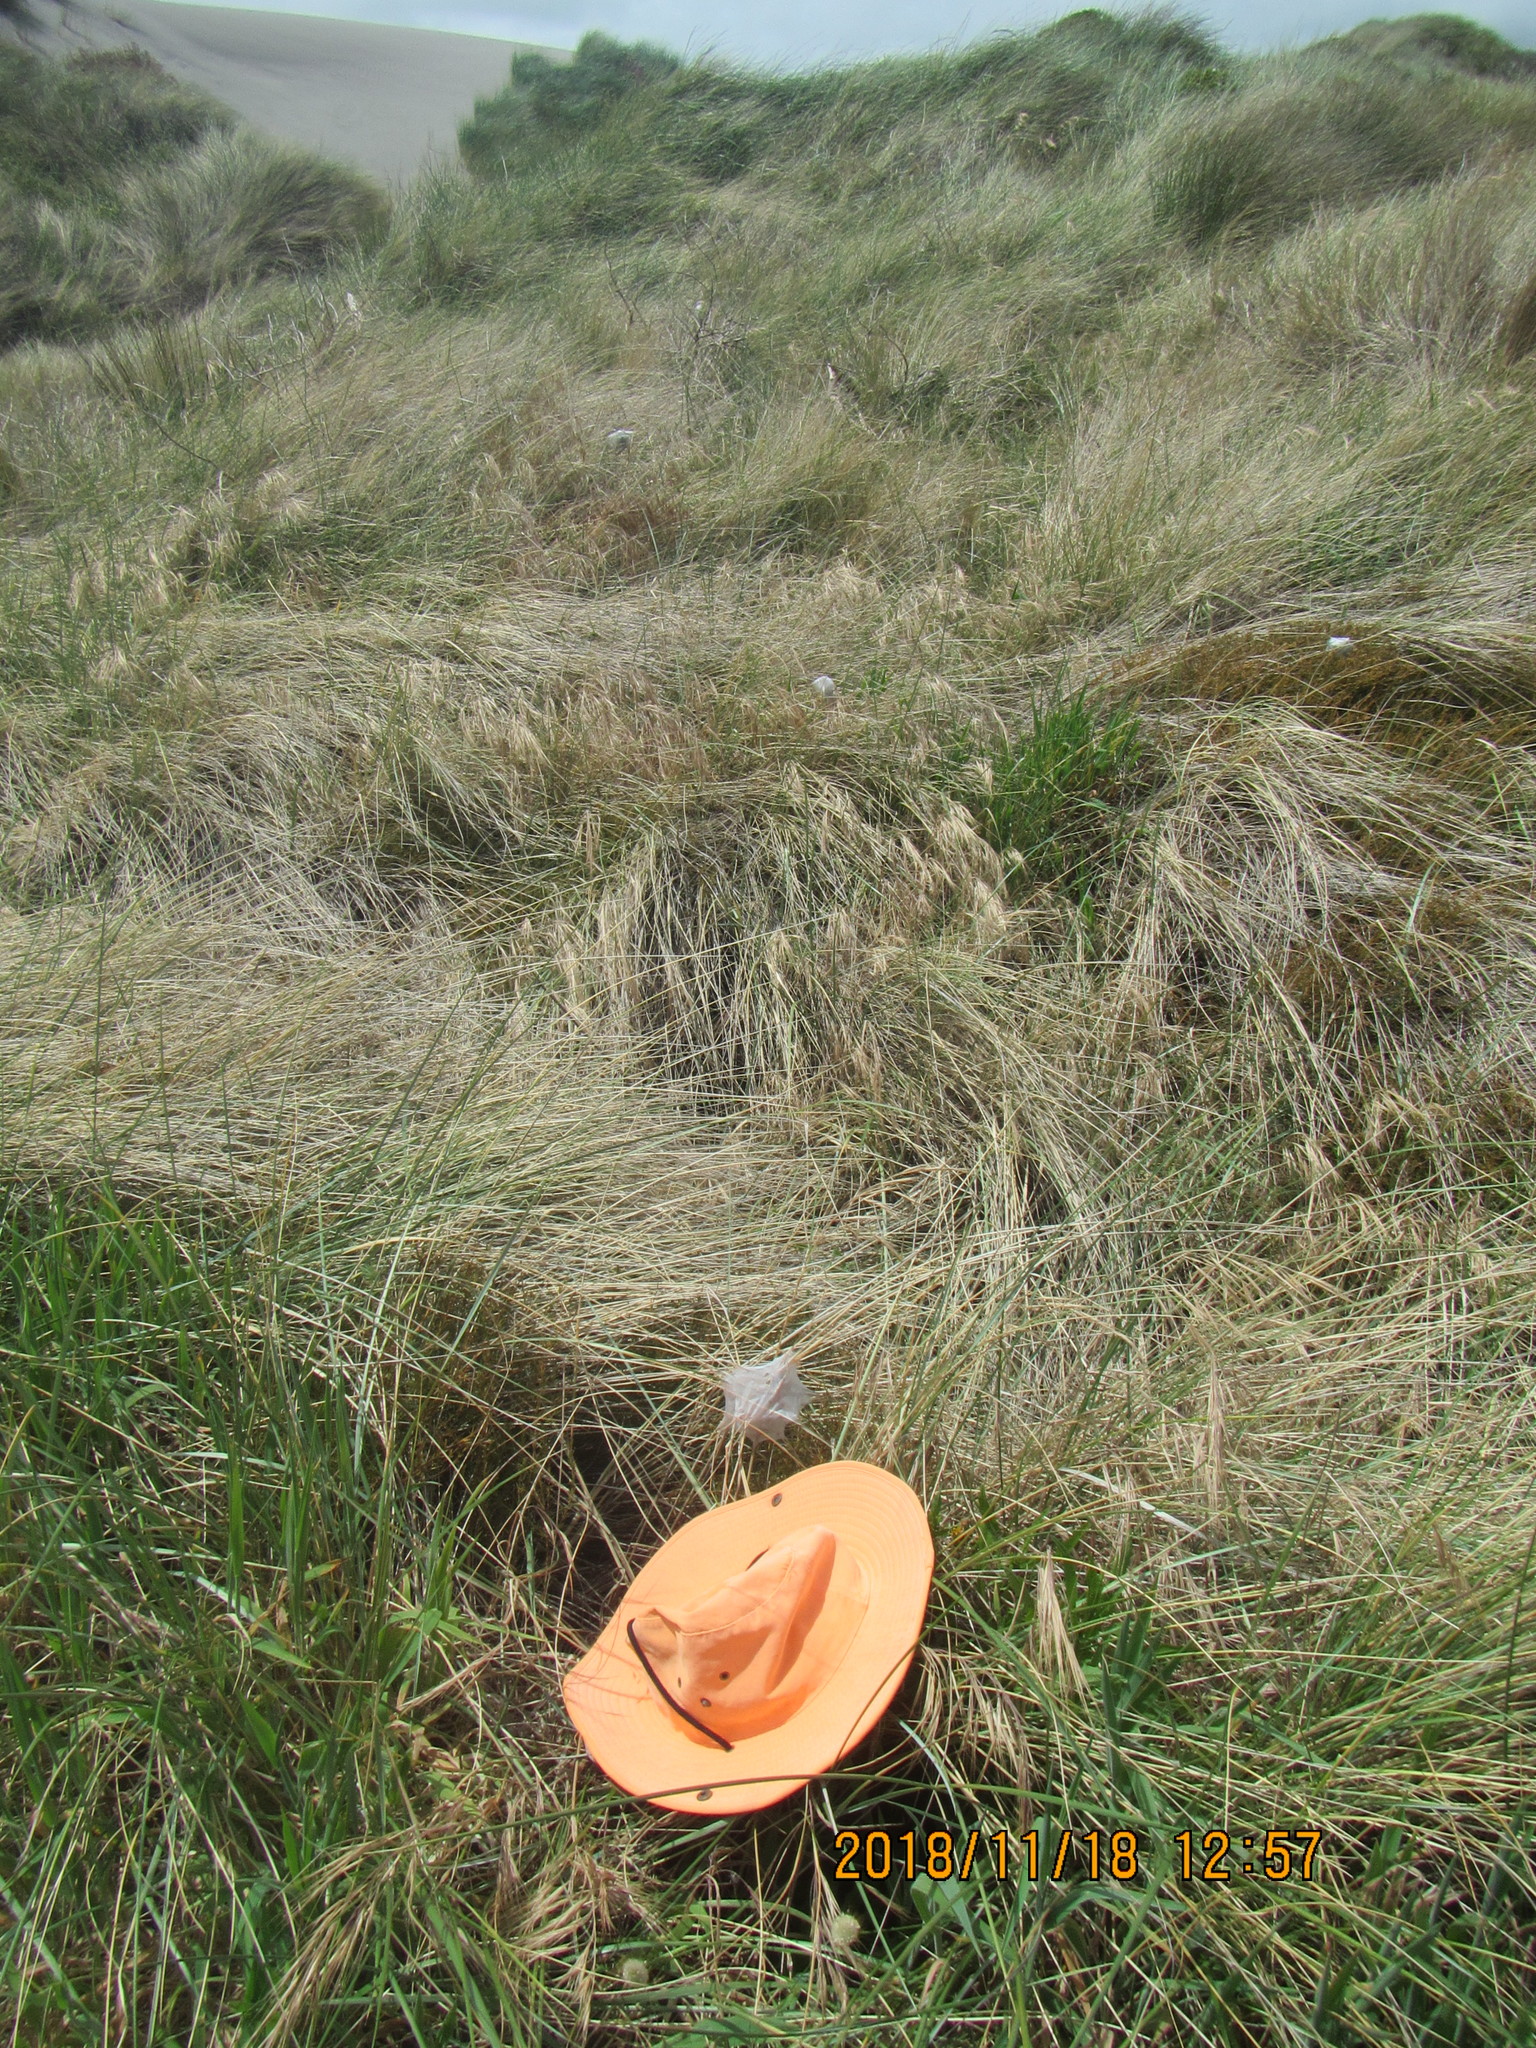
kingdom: Animalia
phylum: Arthropoda
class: Arachnida
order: Araneae
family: Pisauridae
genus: Dolomedes
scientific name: Dolomedes minor
